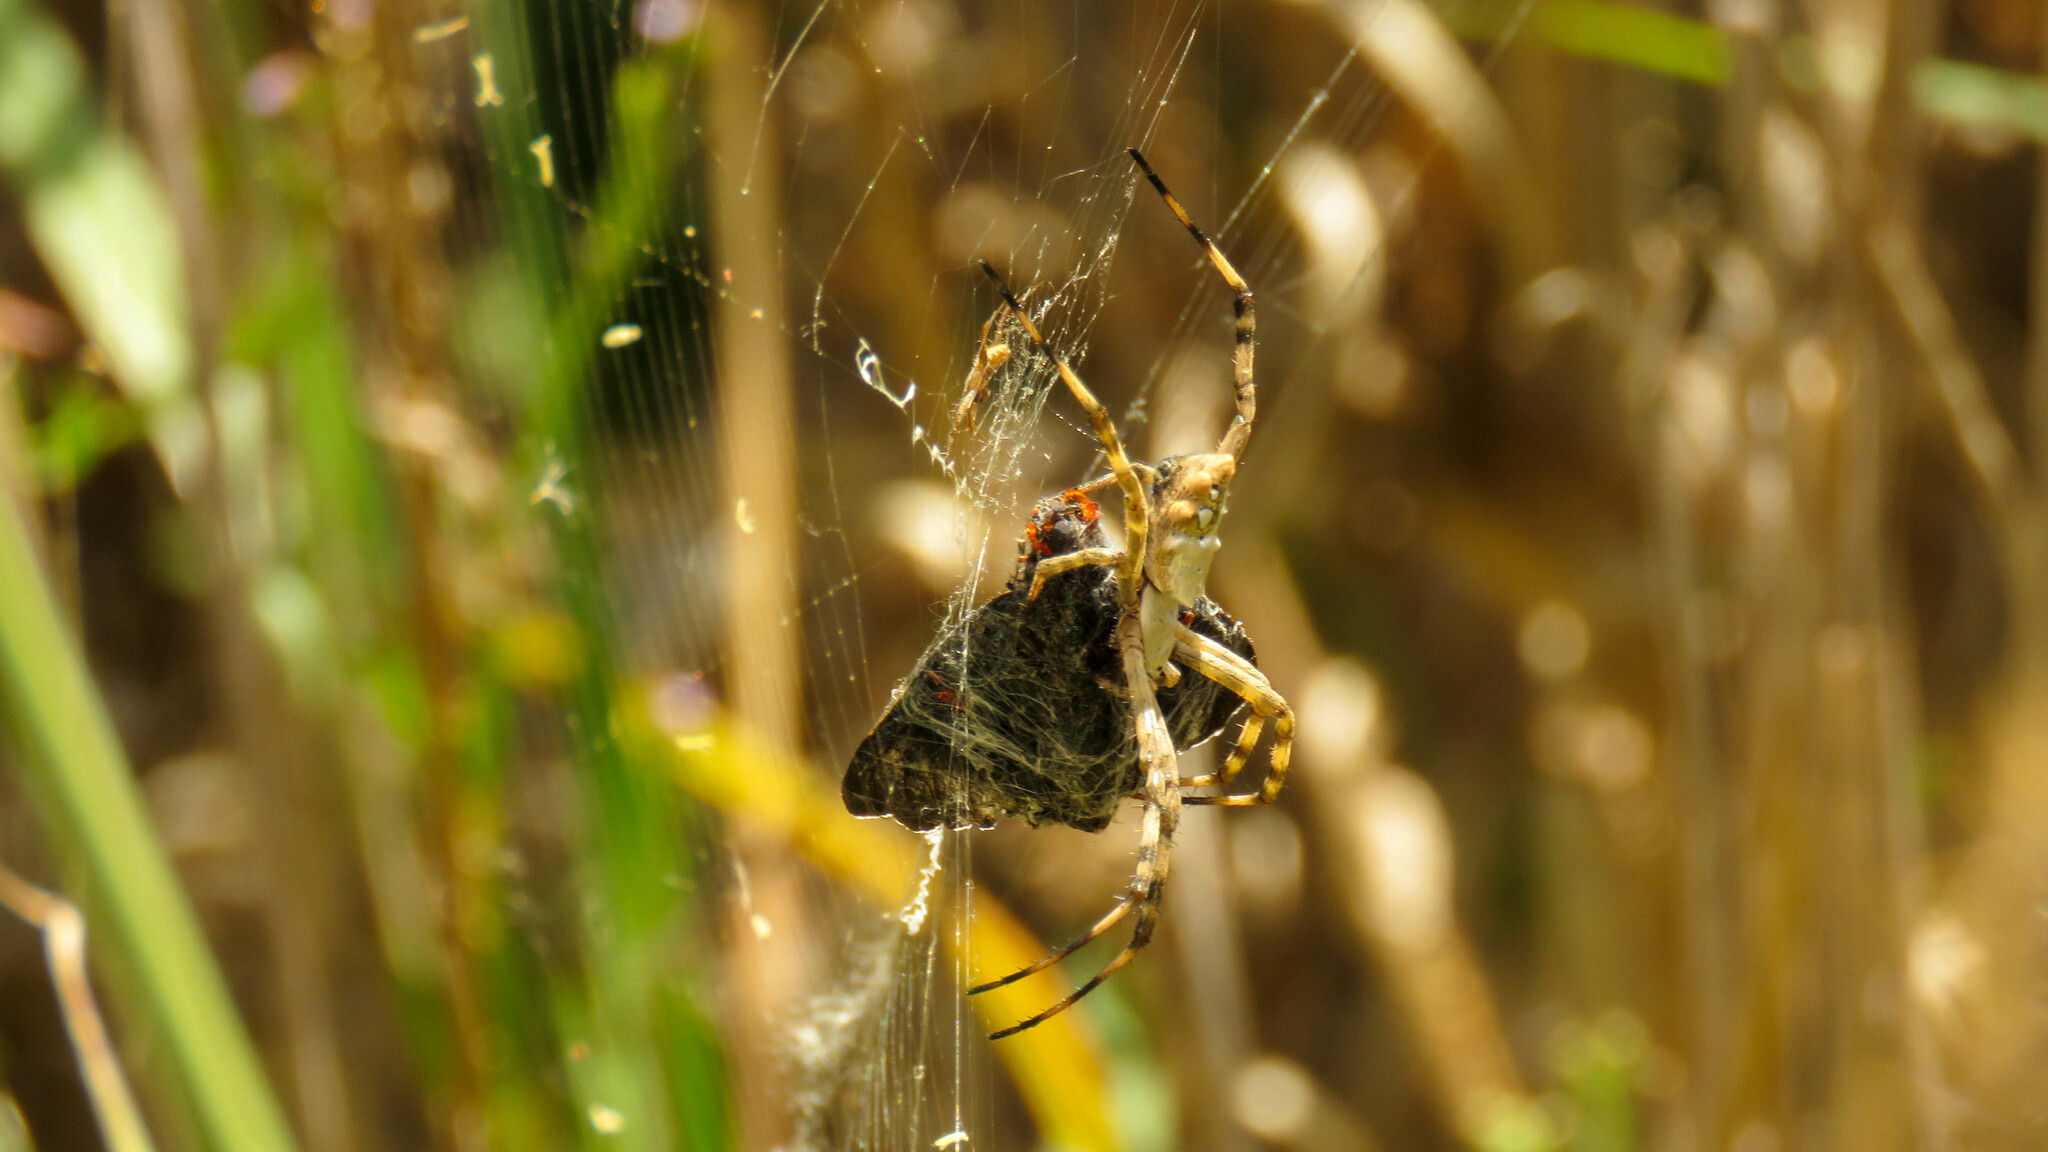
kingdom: Animalia
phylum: Arthropoda
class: Insecta
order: Lepidoptera
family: Hesperiidae
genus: Phocides
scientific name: Phocides polybius
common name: Guava skipper
